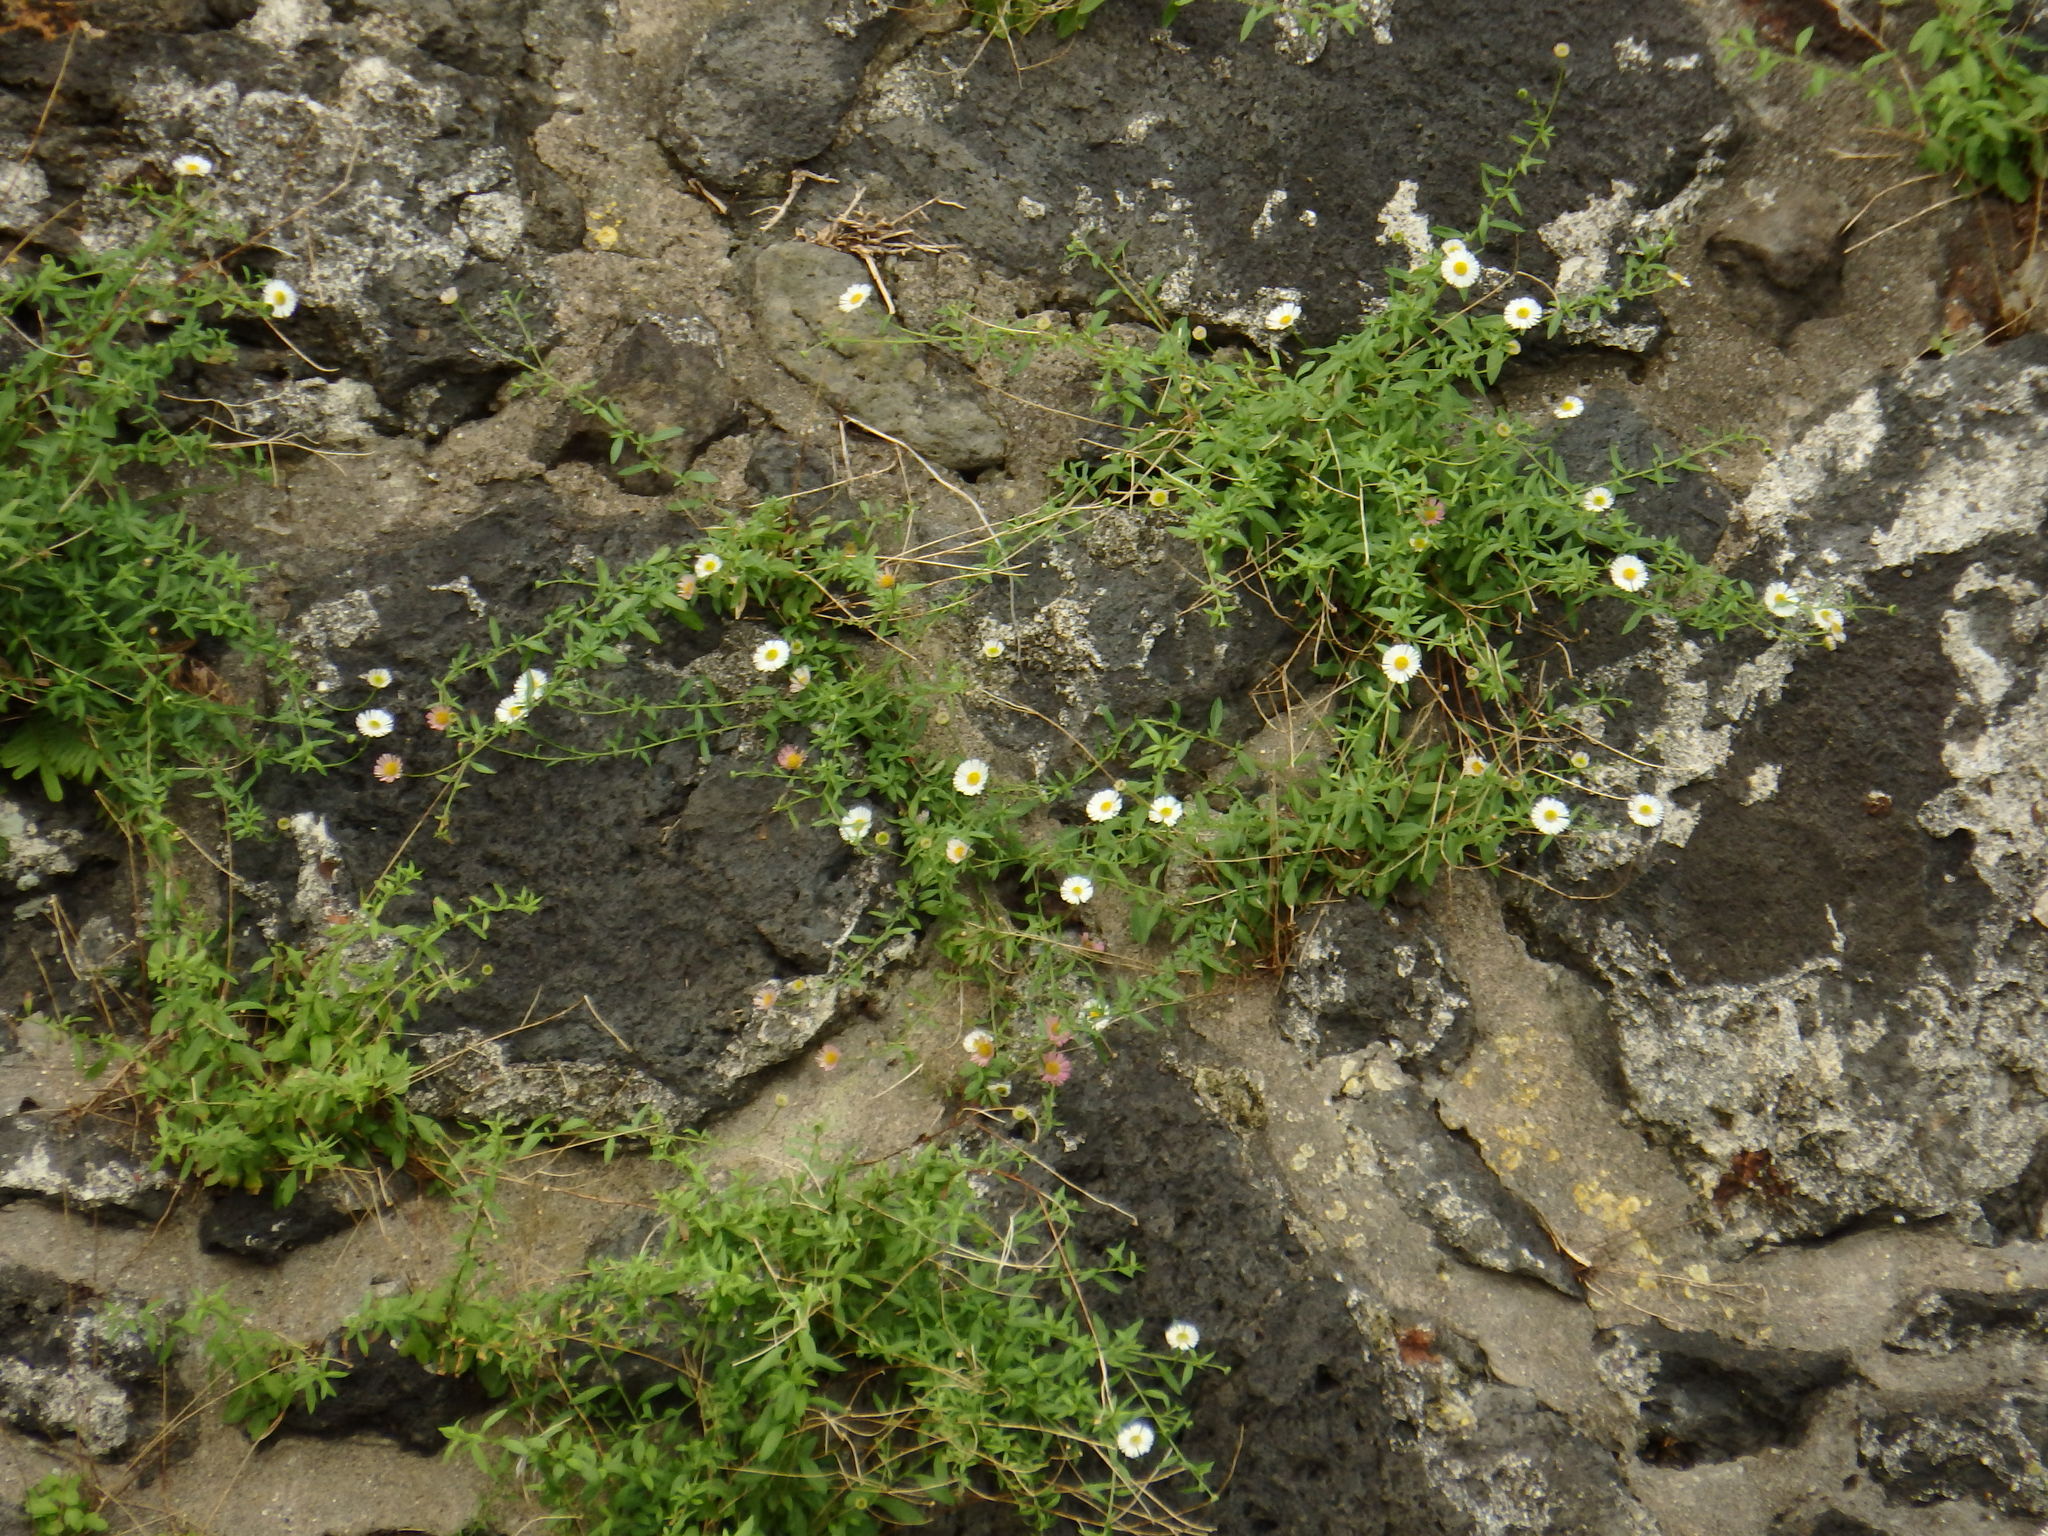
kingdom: Plantae
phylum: Tracheophyta
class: Magnoliopsida
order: Asterales
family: Asteraceae
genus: Erigeron
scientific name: Erigeron karvinskianus
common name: Mexican fleabane
